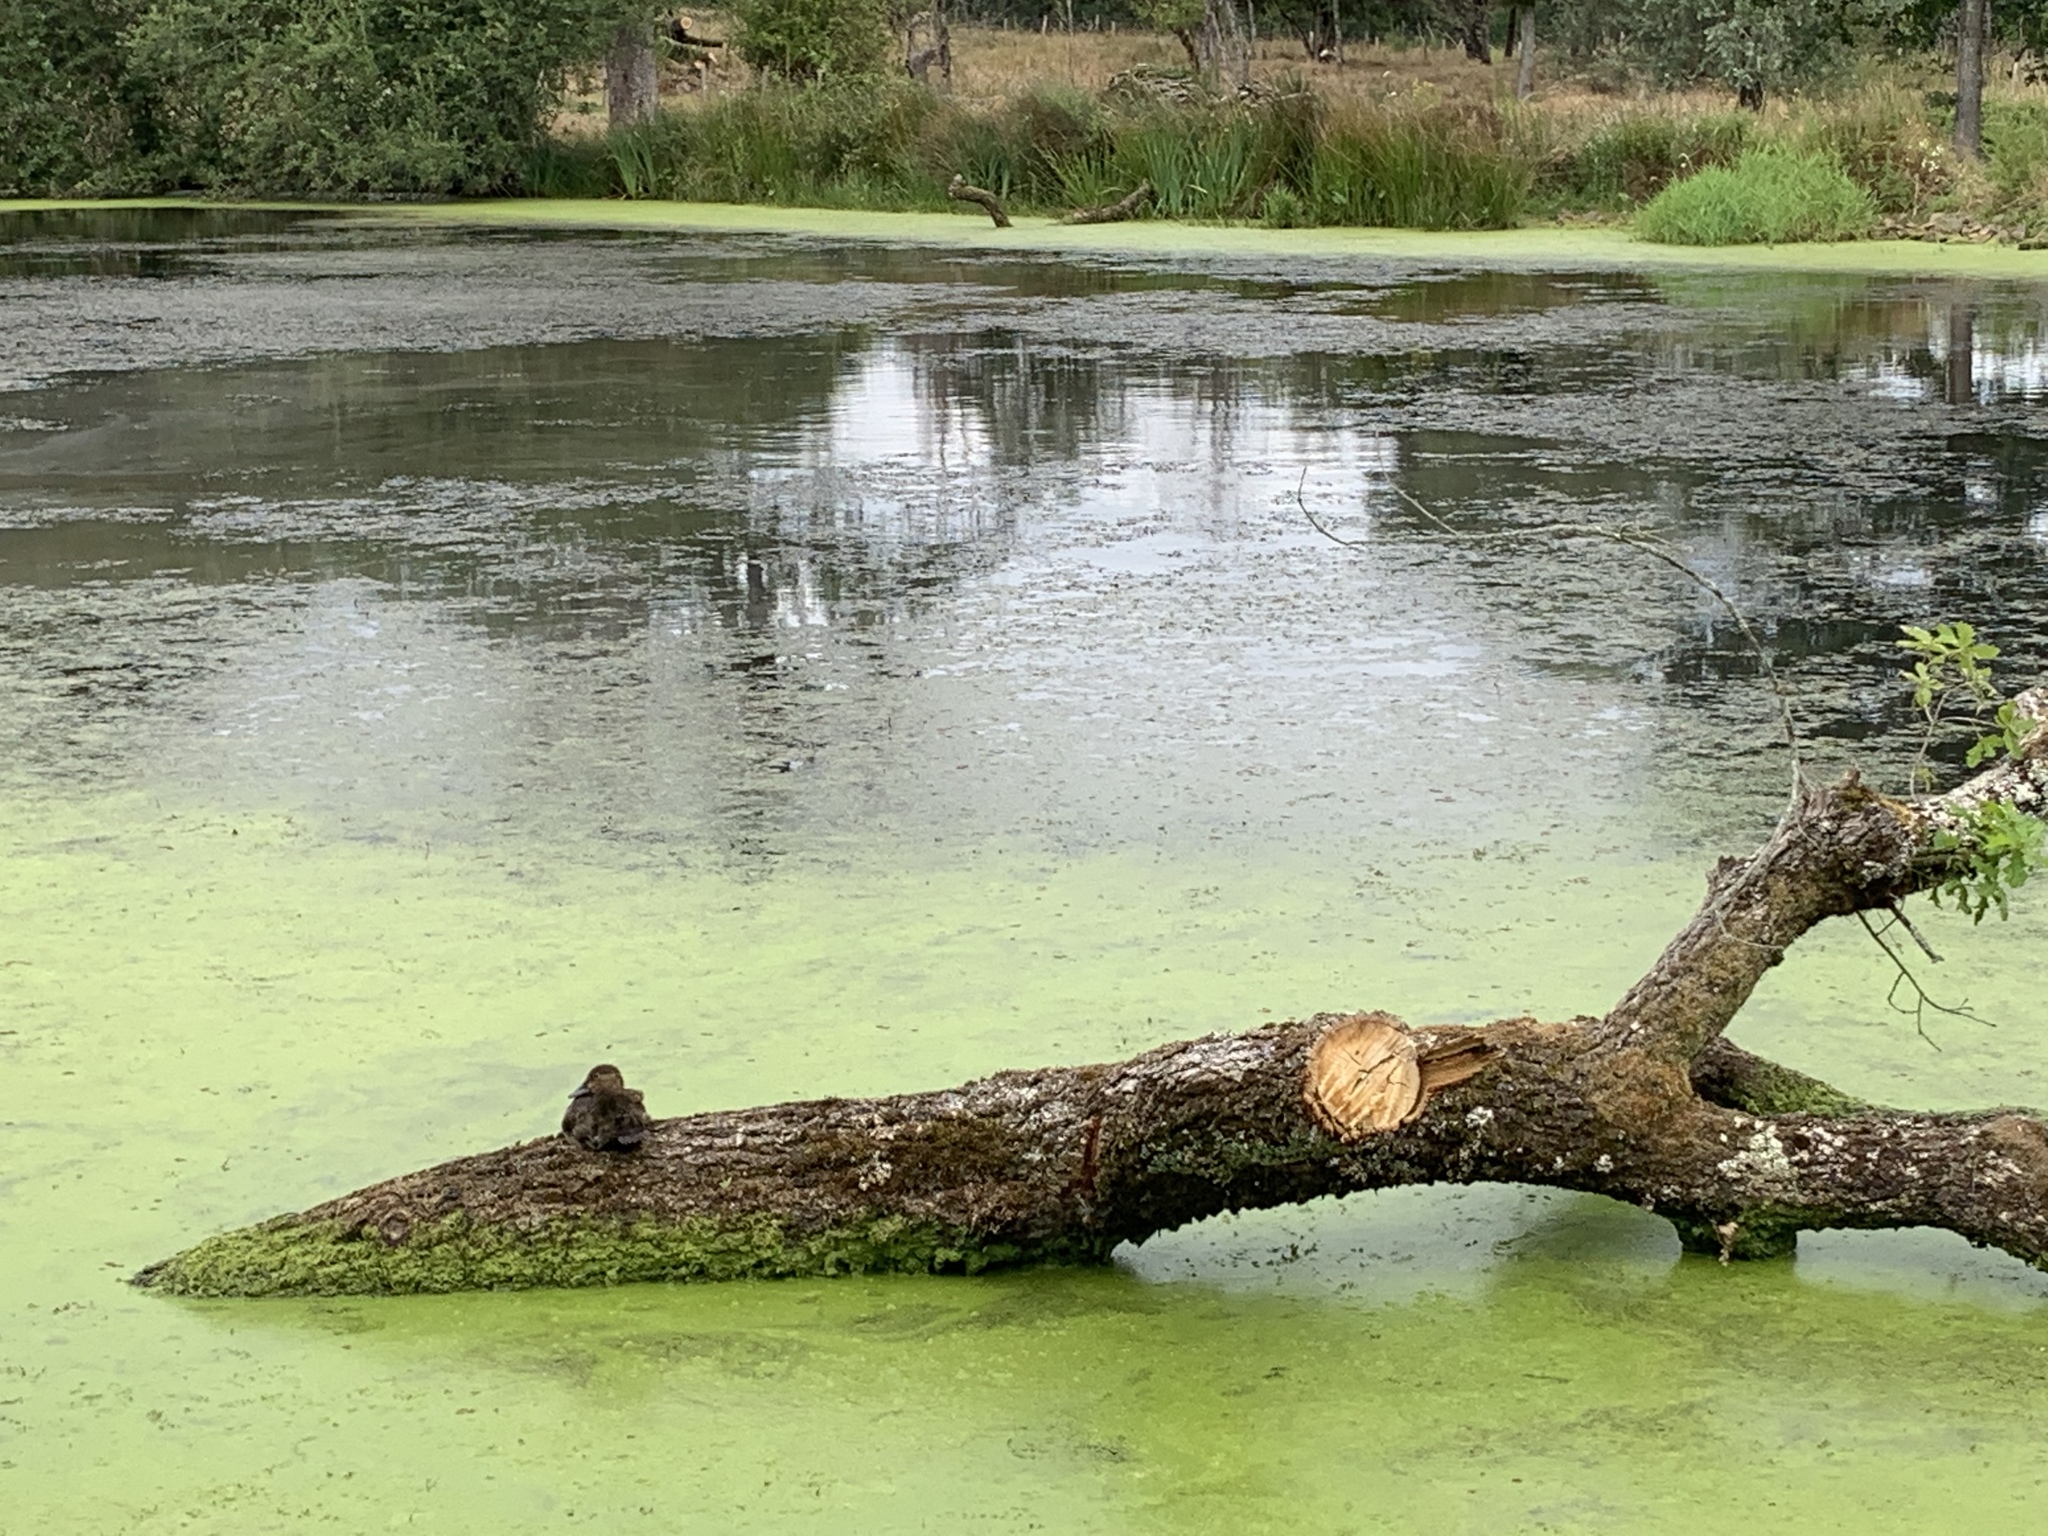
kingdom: Animalia
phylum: Chordata
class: Aves
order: Anseriformes
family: Anatidae
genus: Aythya
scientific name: Aythya ferina
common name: Common pochard
